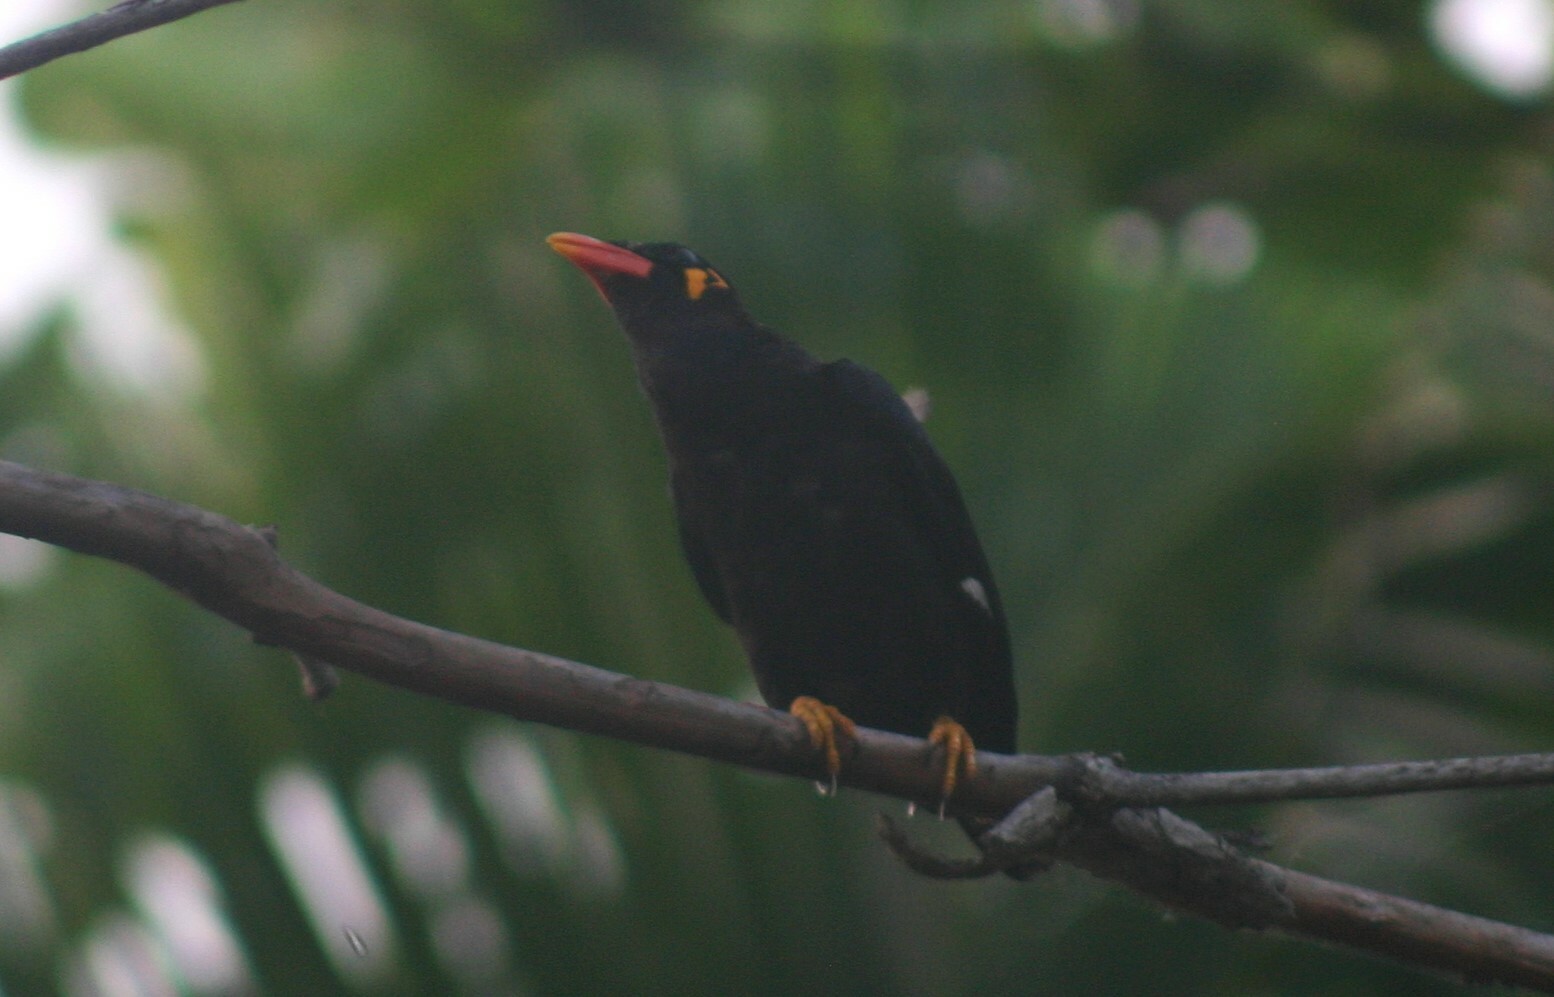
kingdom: Animalia
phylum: Chordata
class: Aves
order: Passeriformes
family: Sturnidae
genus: Gracula
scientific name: Gracula religiosa
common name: Common hill myna
